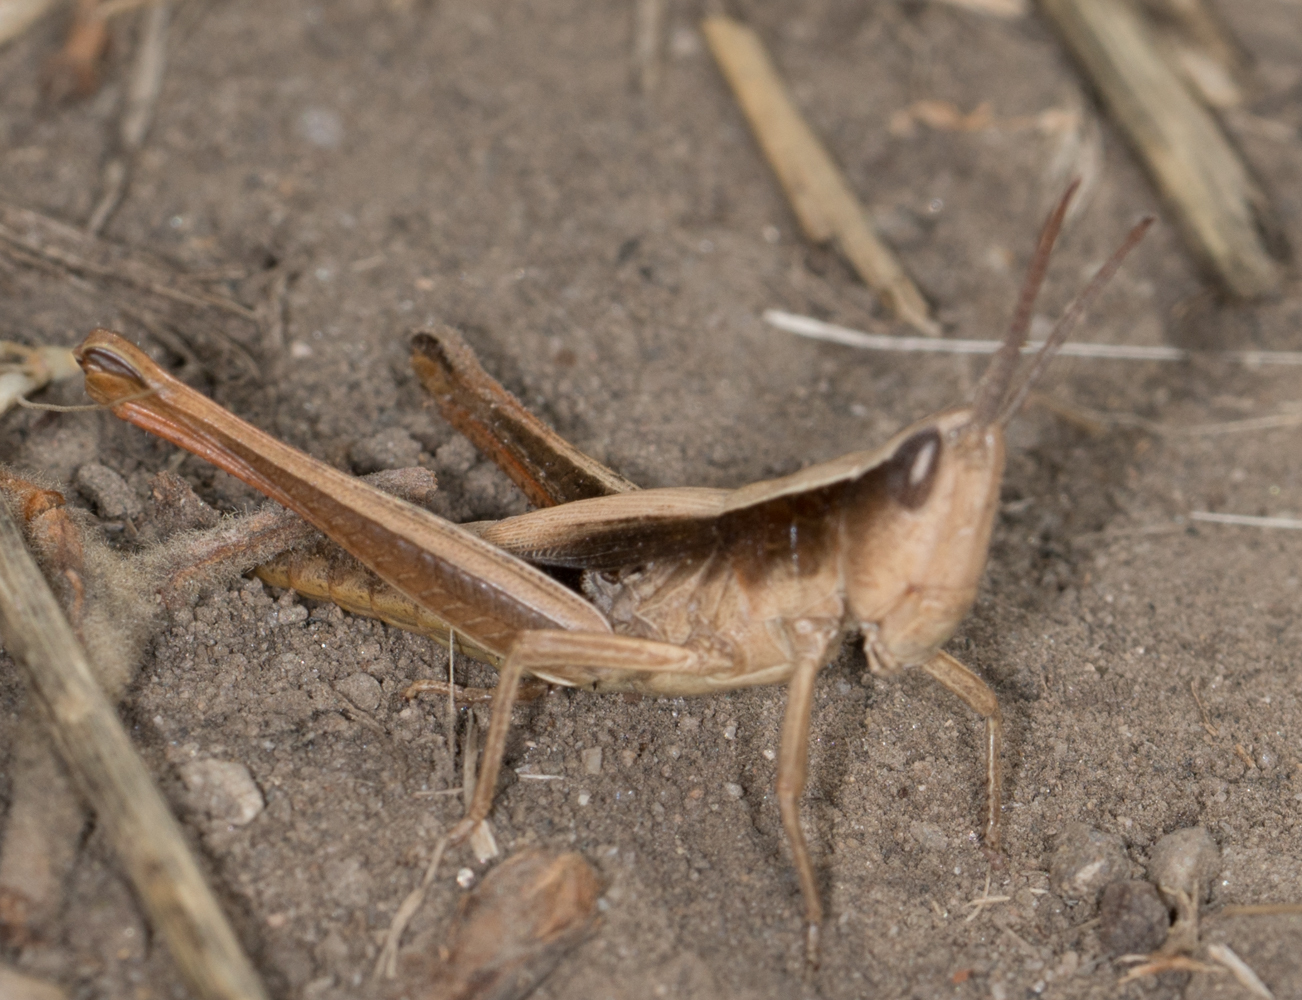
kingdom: Animalia
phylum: Arthropoda
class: Insecta
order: Orthoptera
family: Acrididae
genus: Chloealtis
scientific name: Chloealtis gracilis
